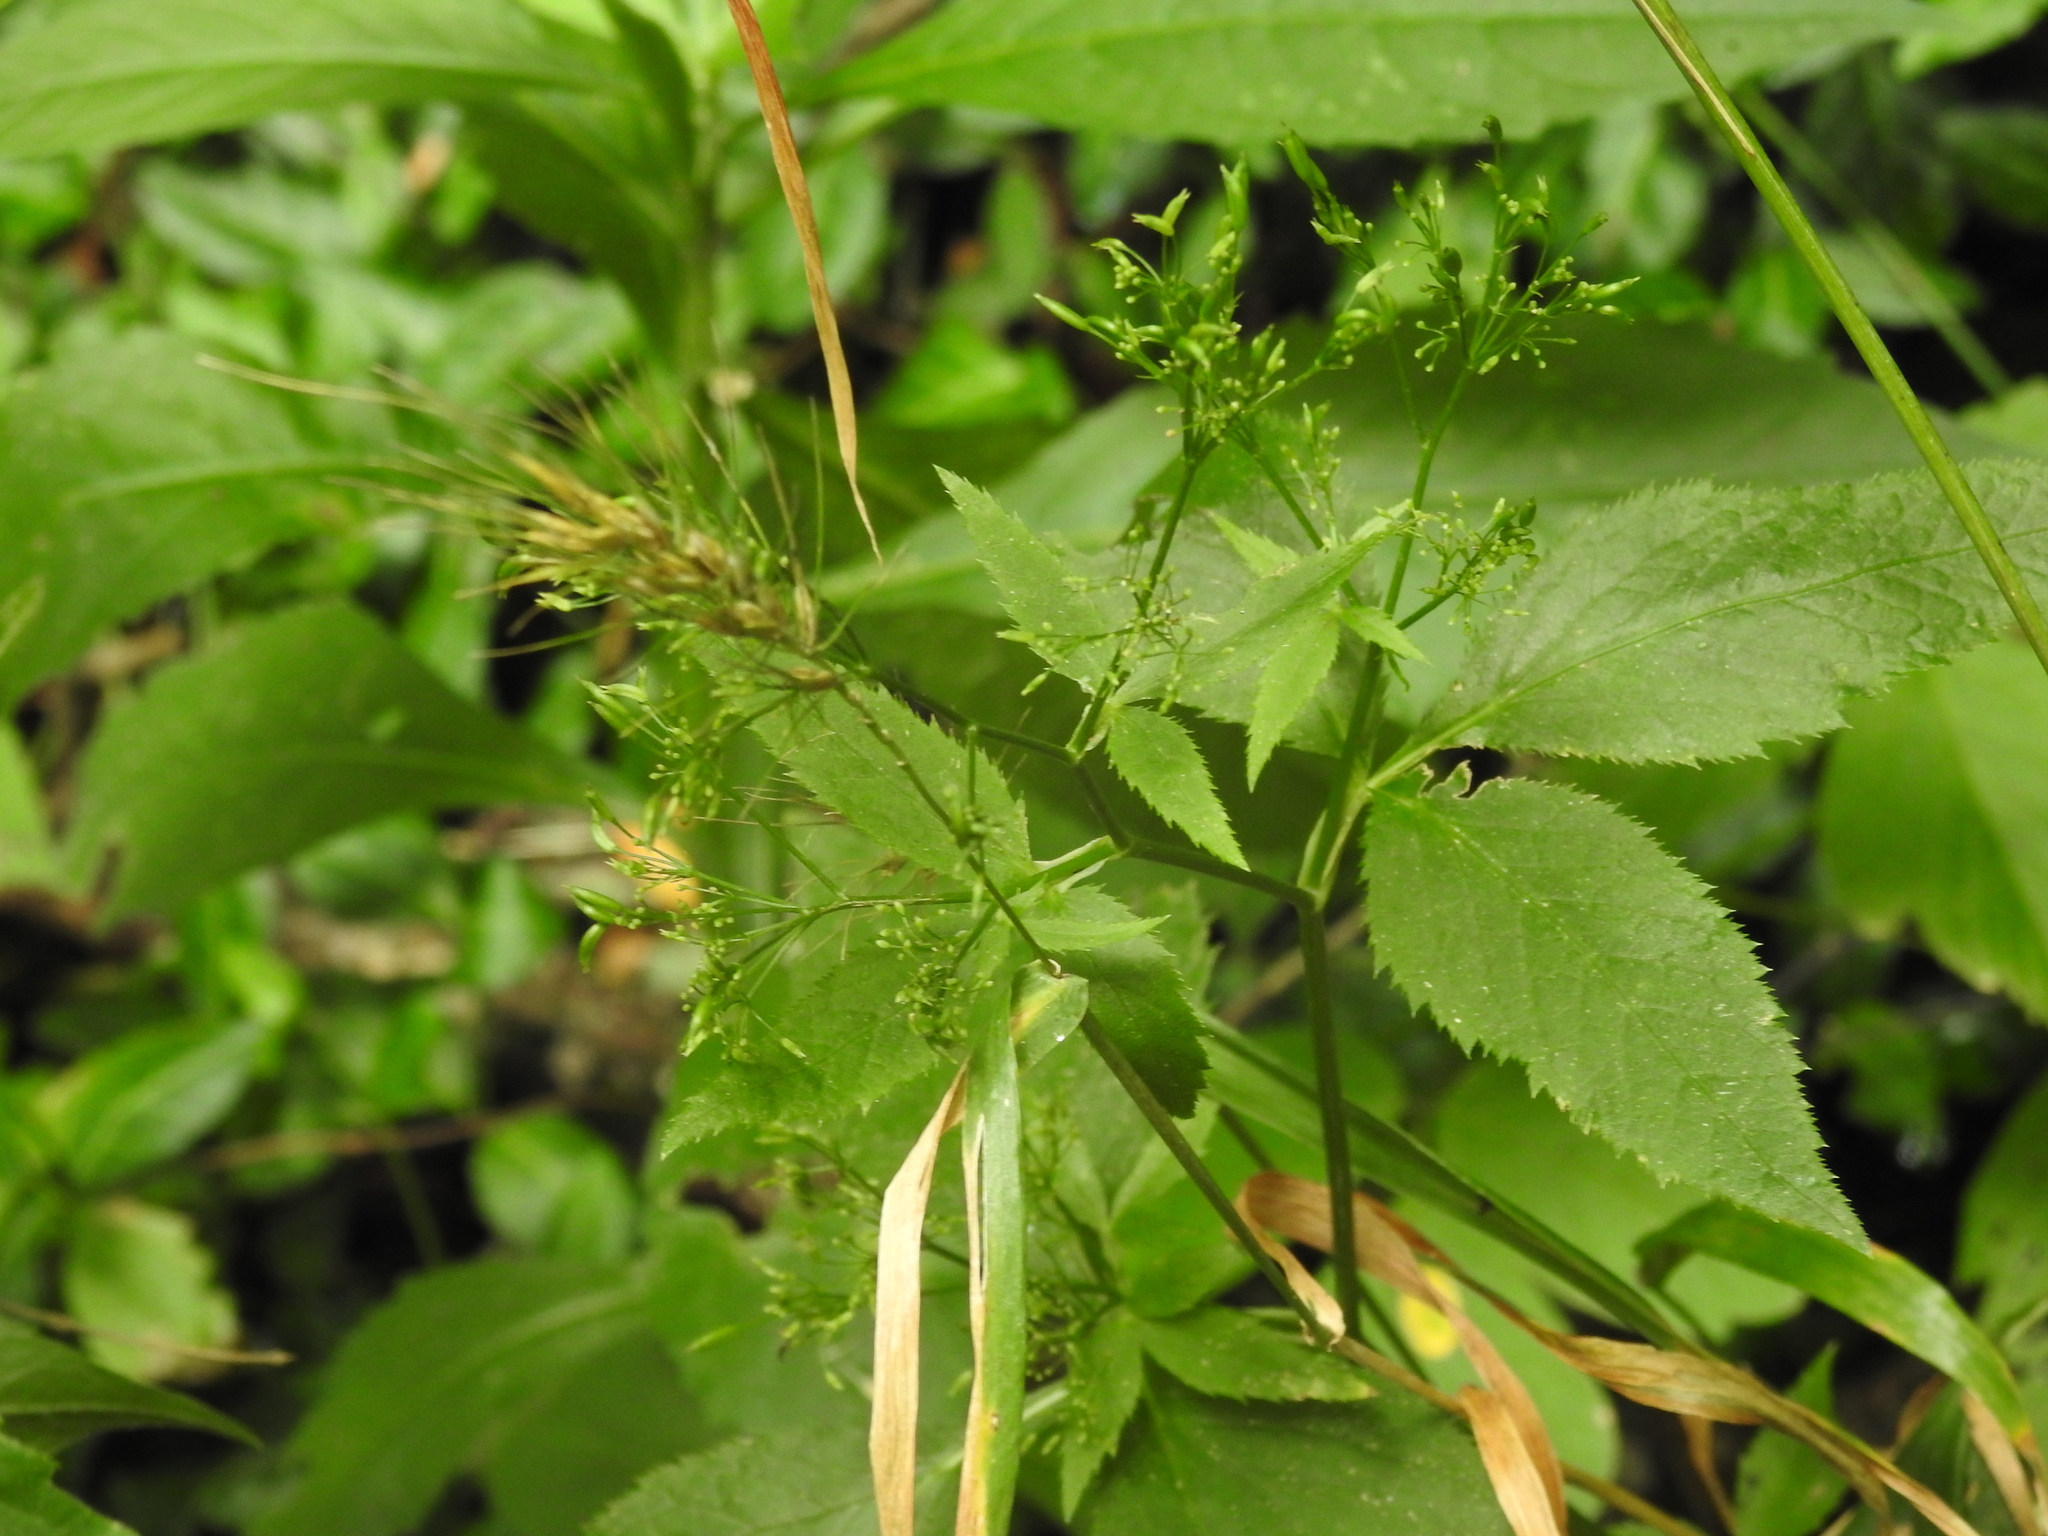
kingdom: Plantae
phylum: Tracheophyta
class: Magnoliopsida
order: Apiales
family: Apiaceae
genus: Cryptotaenia
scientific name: Cryptotaenia canadensis
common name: Honewort
